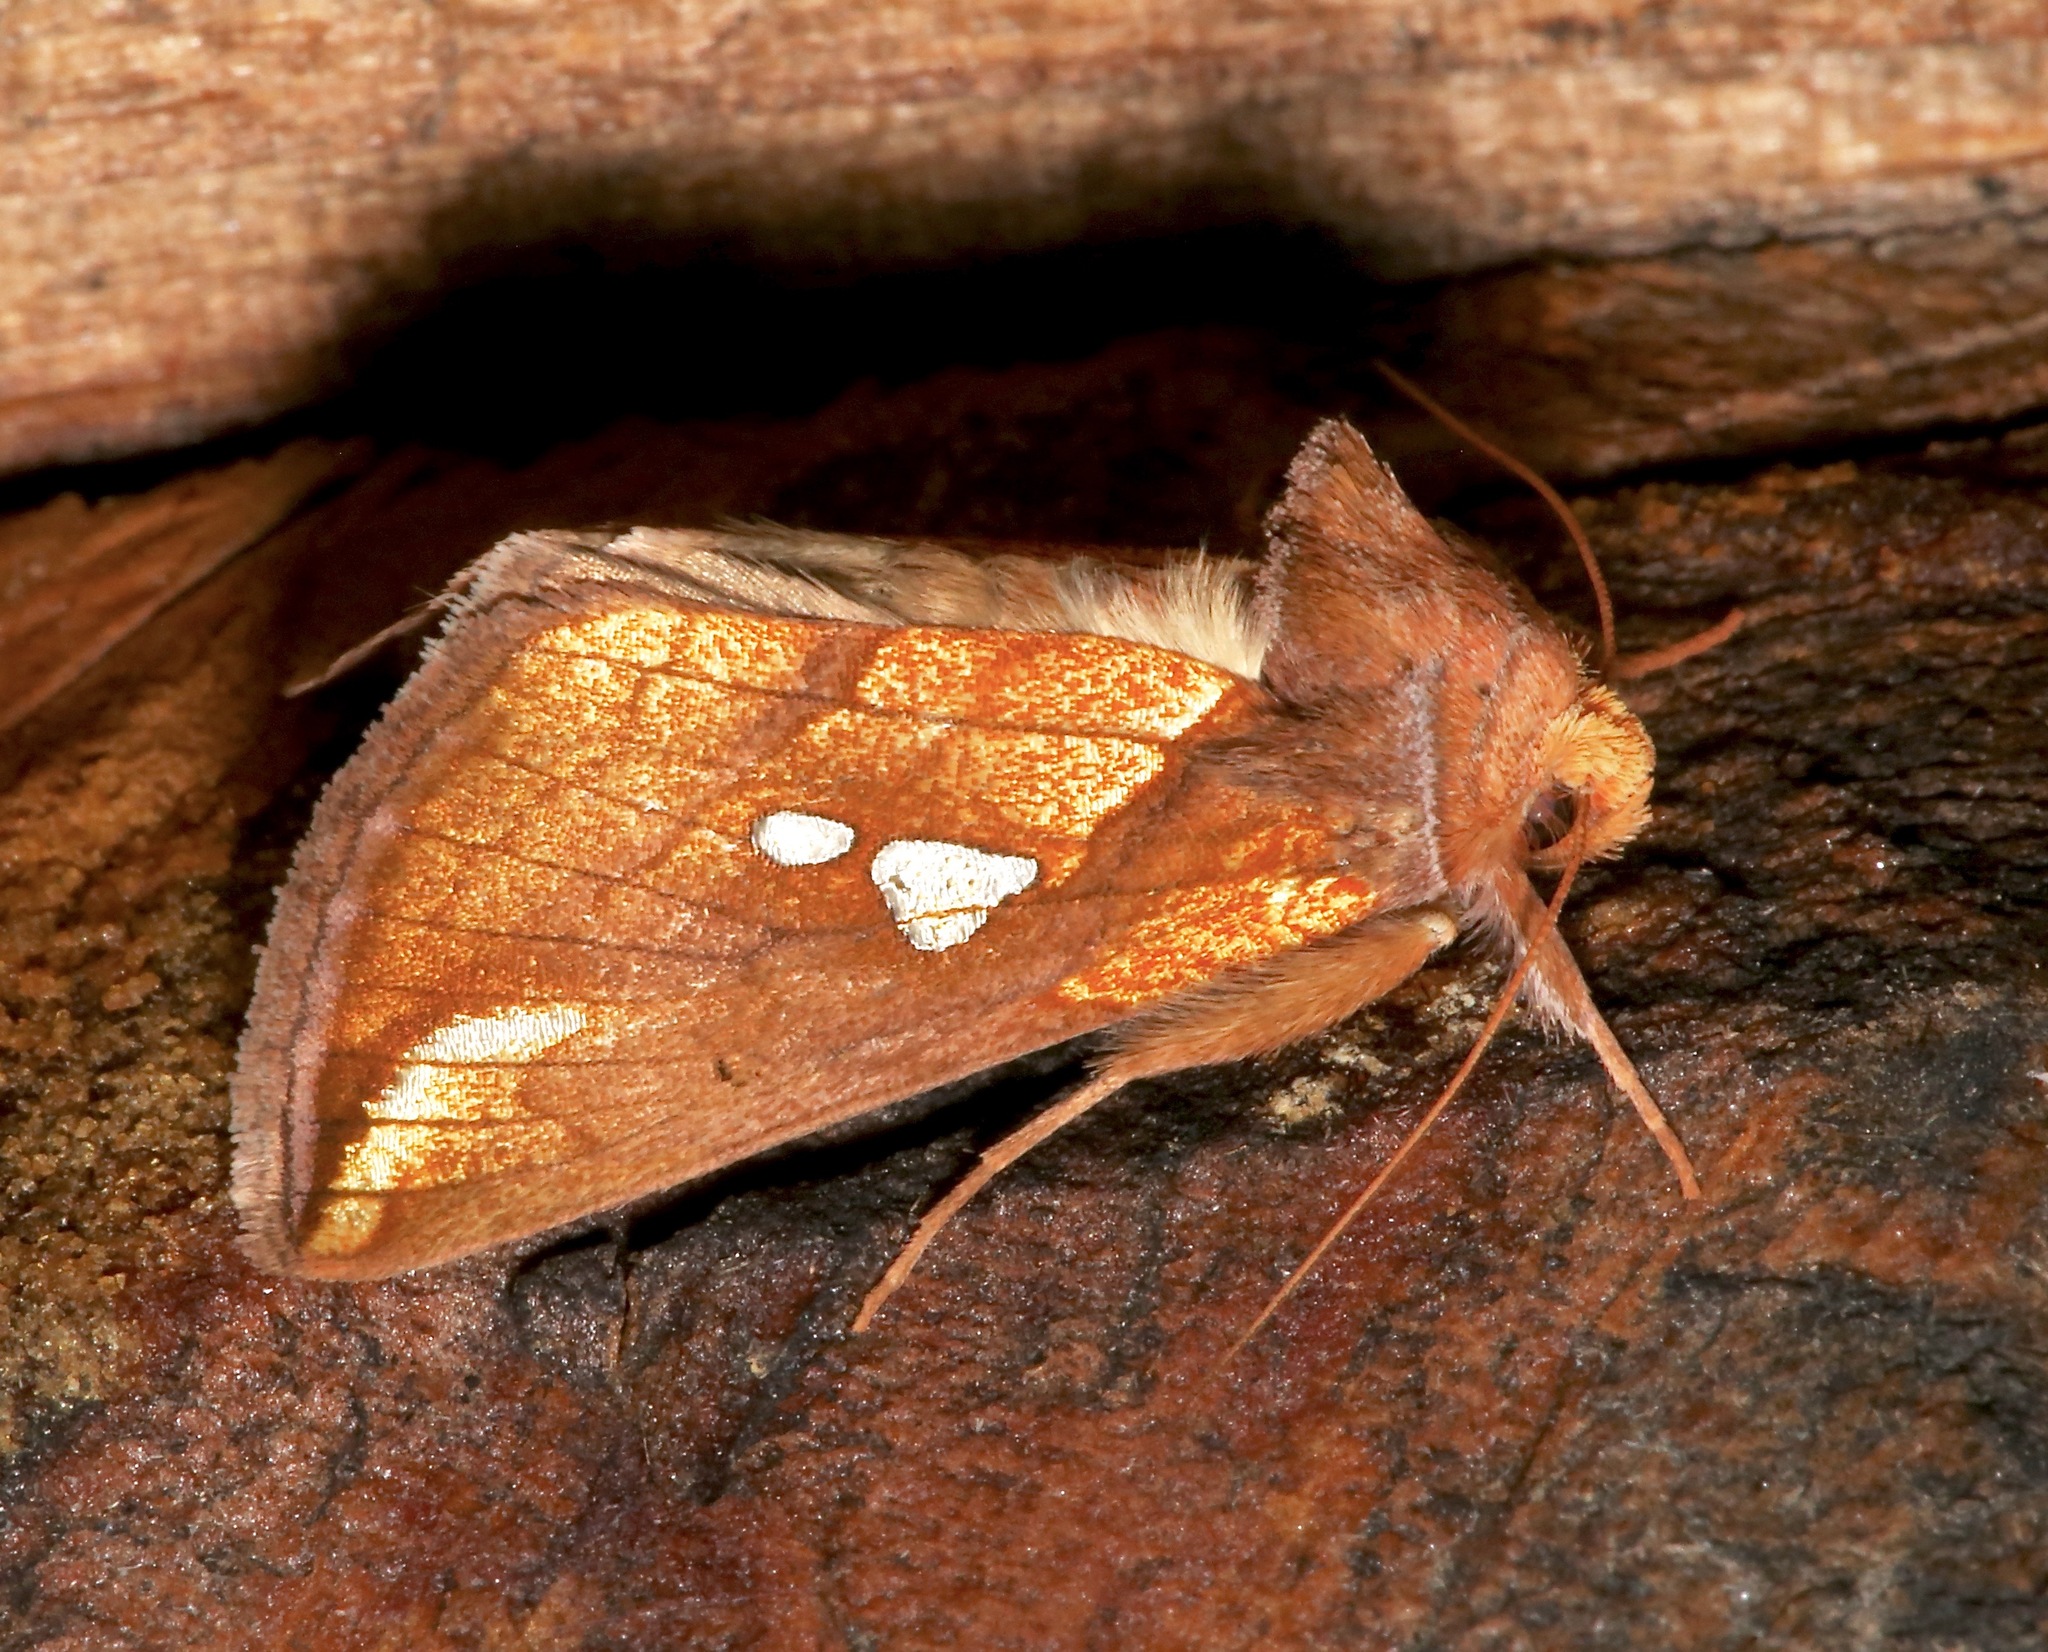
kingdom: Animalia
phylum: Arthropoda
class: Insecta
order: Lepidoptera
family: Noctuidae
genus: Plusia
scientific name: Plusia putnami
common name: Lempke's gold spot
